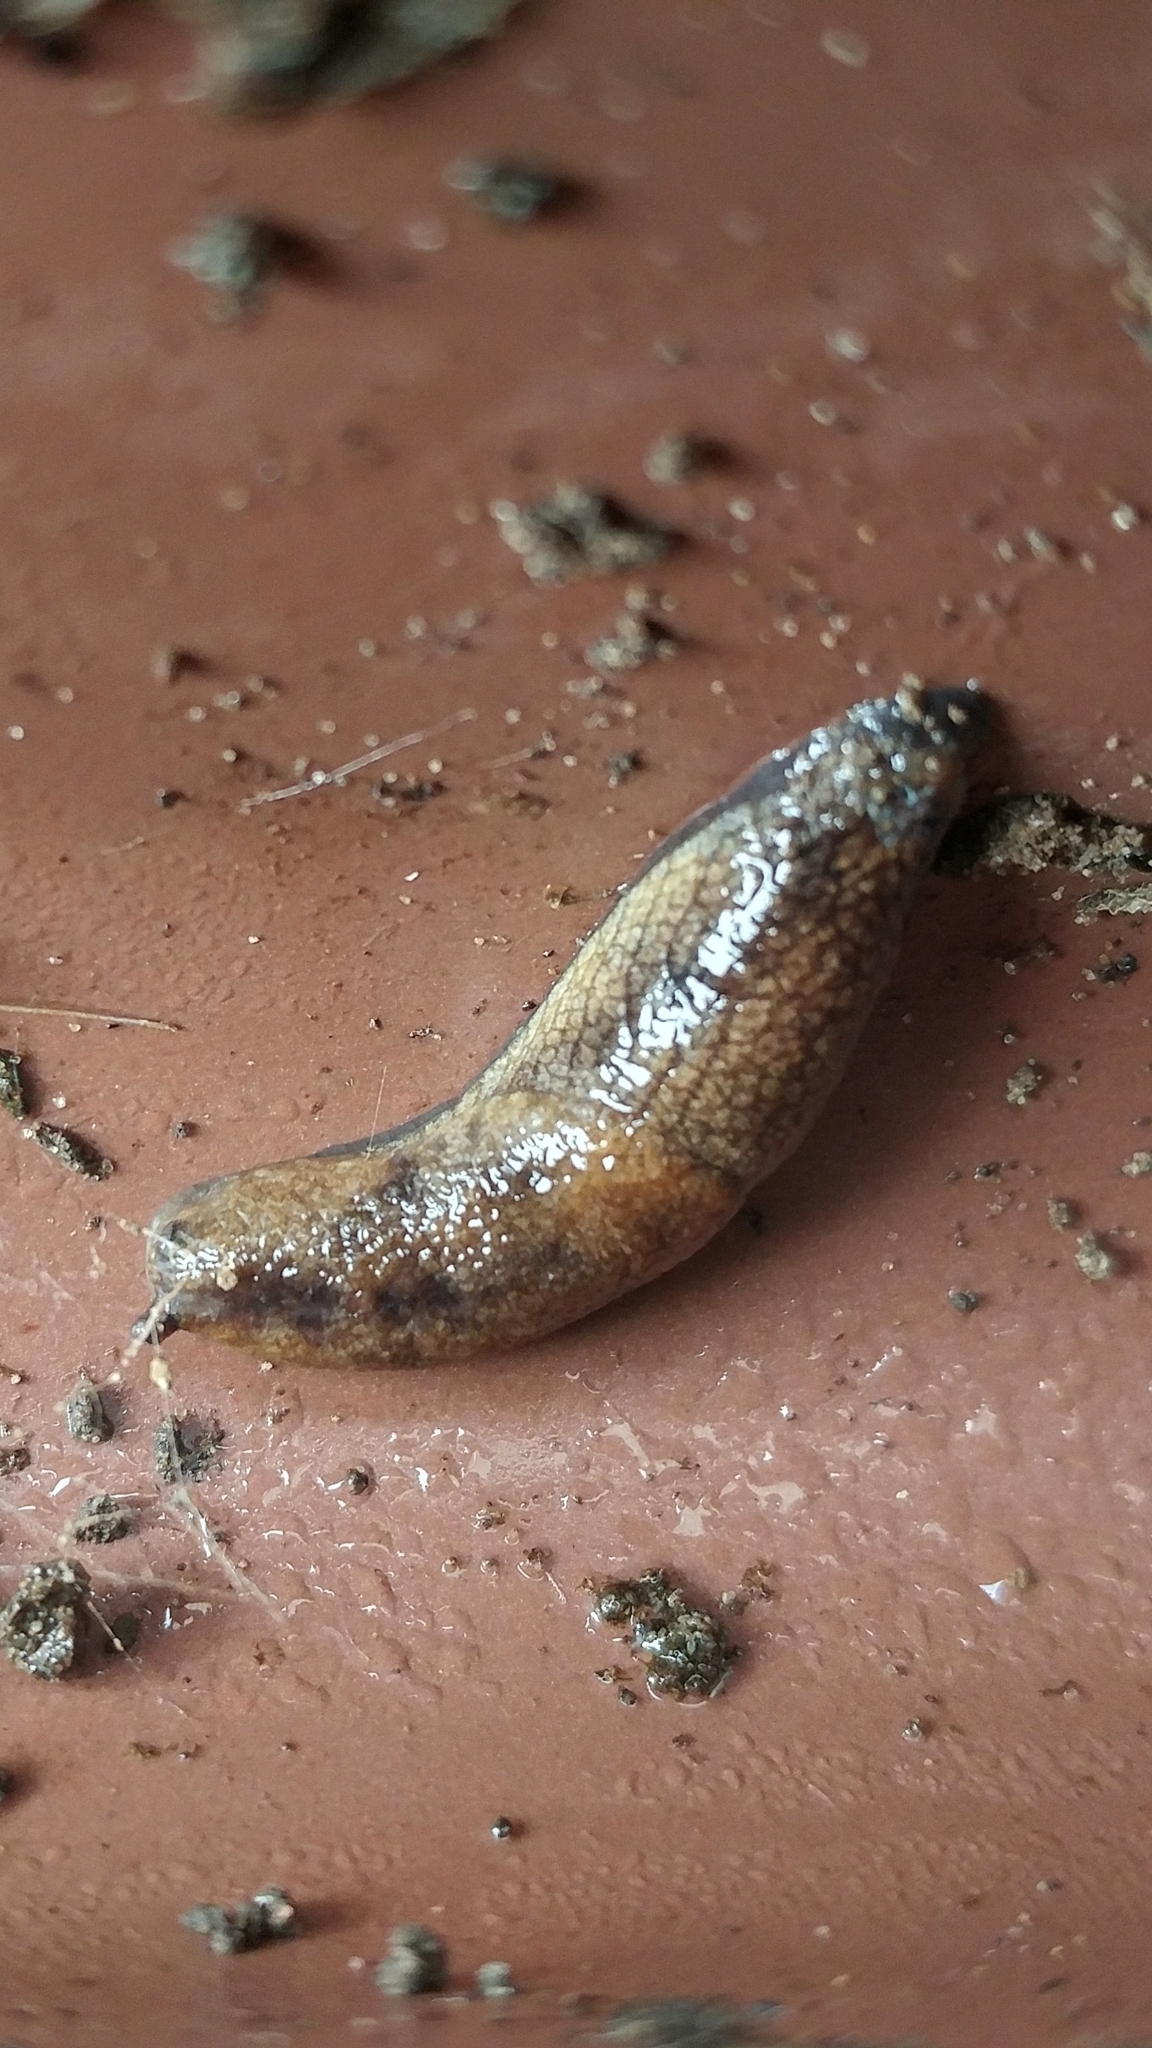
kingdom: Animalia
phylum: Mollusca
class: Gastropoda
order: Stylommatophora
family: Ariolimacidae
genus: Prophysaon
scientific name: Prophysaon vanattae
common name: Scarletback taildropper
